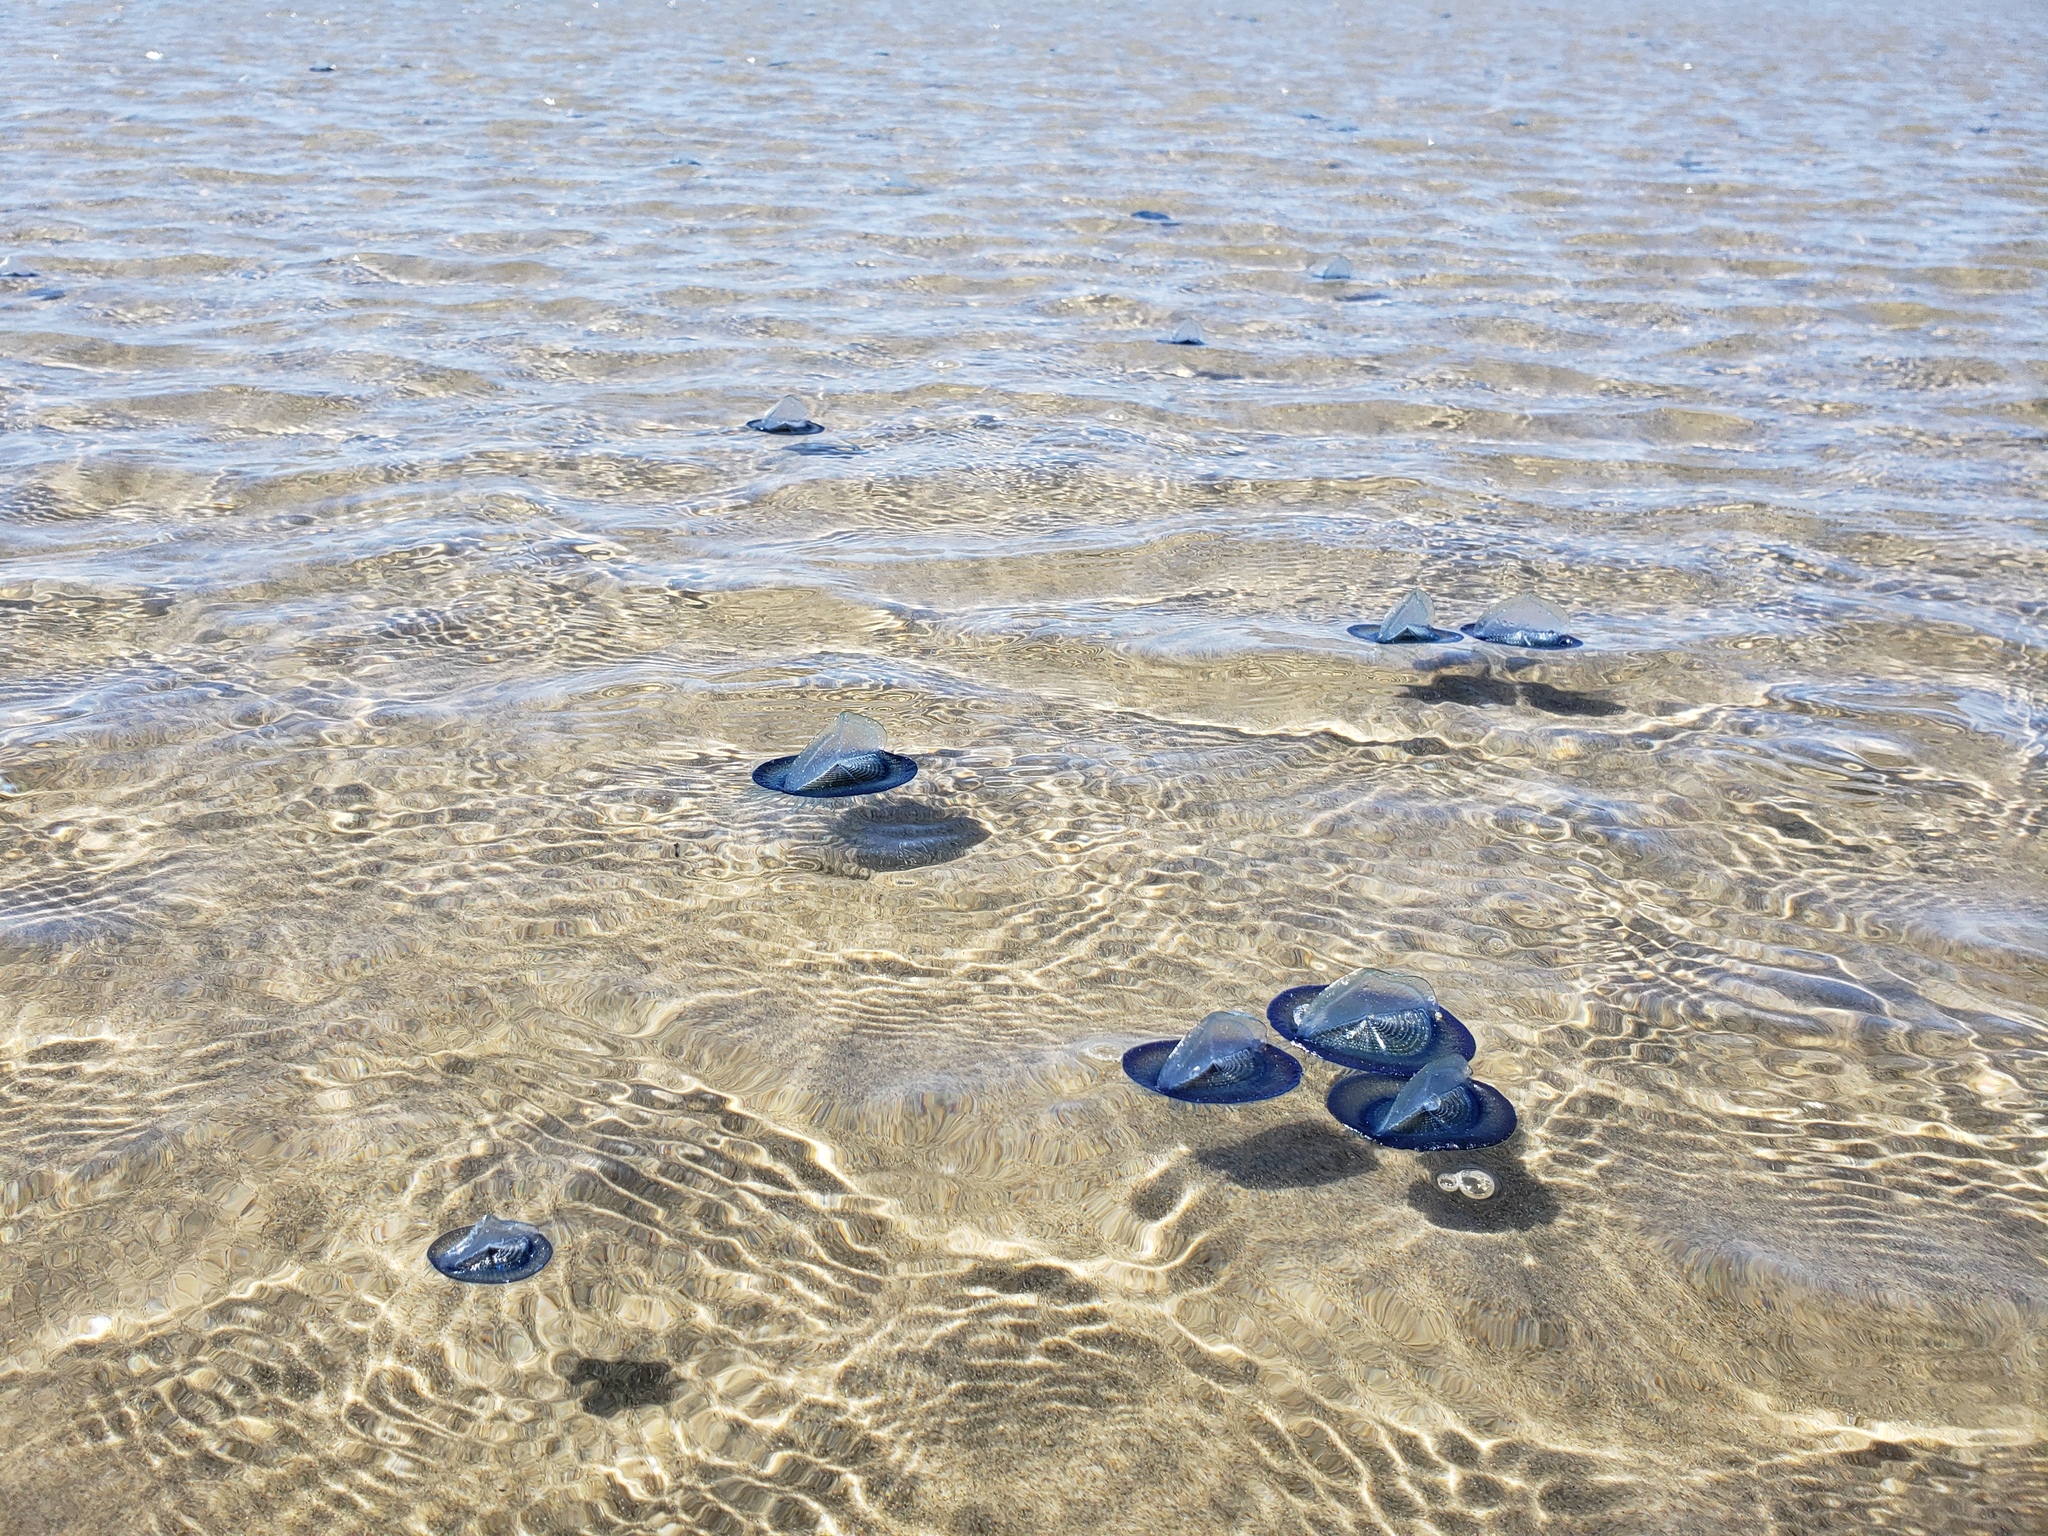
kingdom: Animalia
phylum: Cnidaria
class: Hydrozoa
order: Anthoathecata
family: Porpitidae
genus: Velella
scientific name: Velella velella
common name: By-the-wind-sailor
